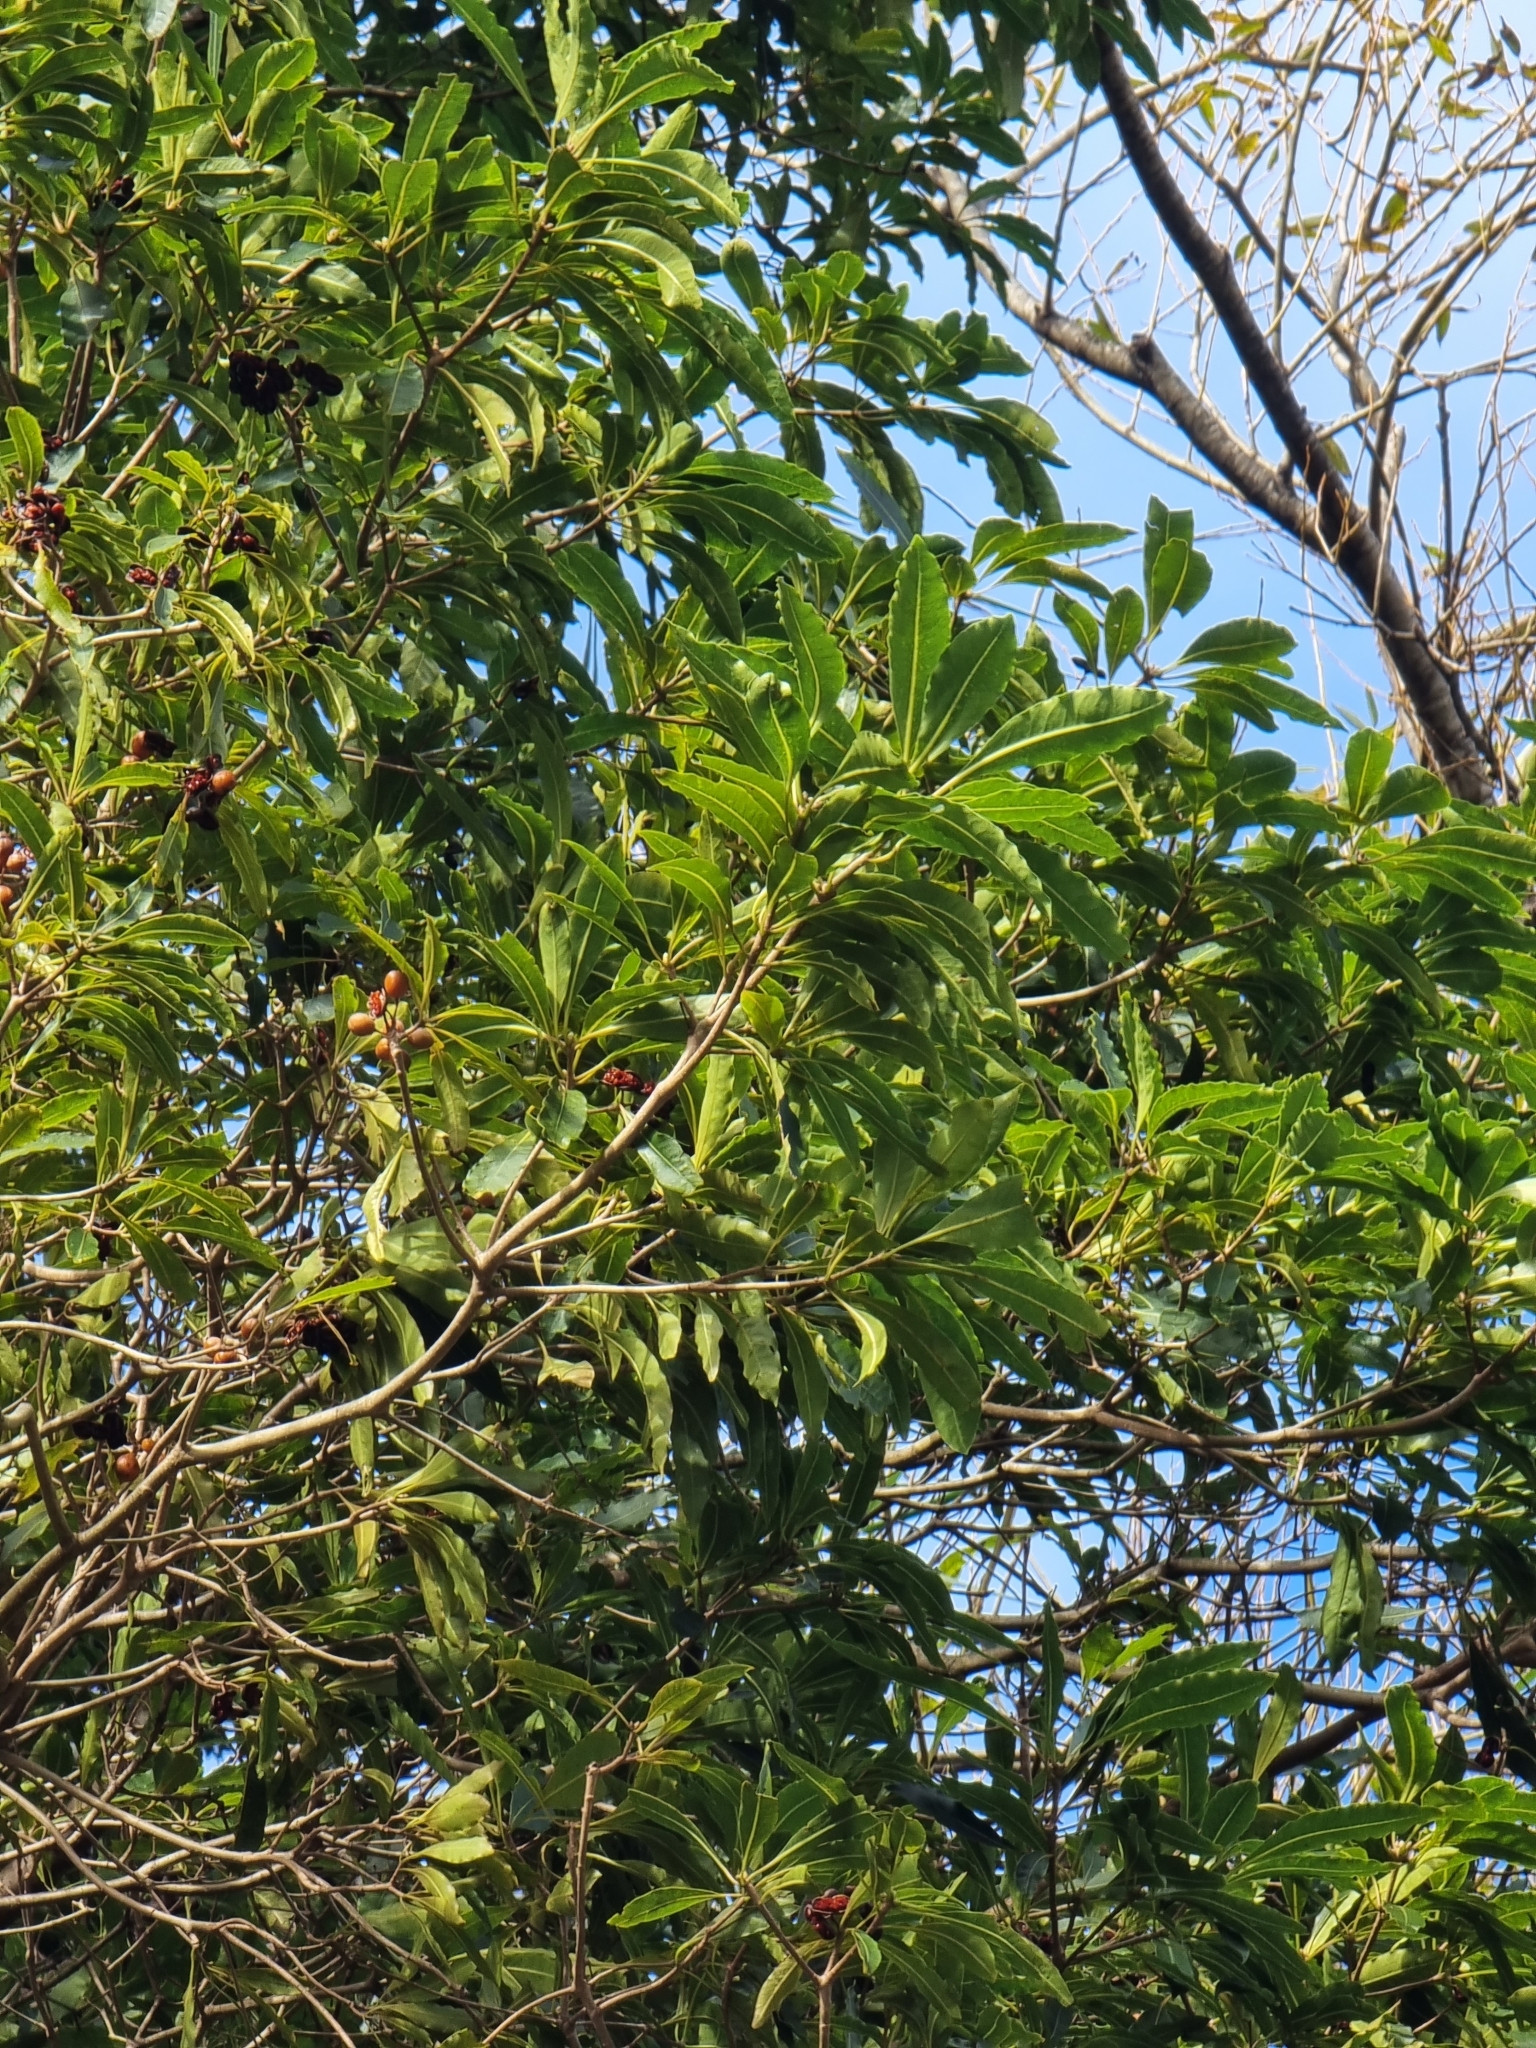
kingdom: Plantae
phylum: Tracheophyta
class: Magnoliopsida
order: Apiales
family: Pittosporaceae
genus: Pittosporum
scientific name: Pittosporum undulatum
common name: Australian cheesewood
